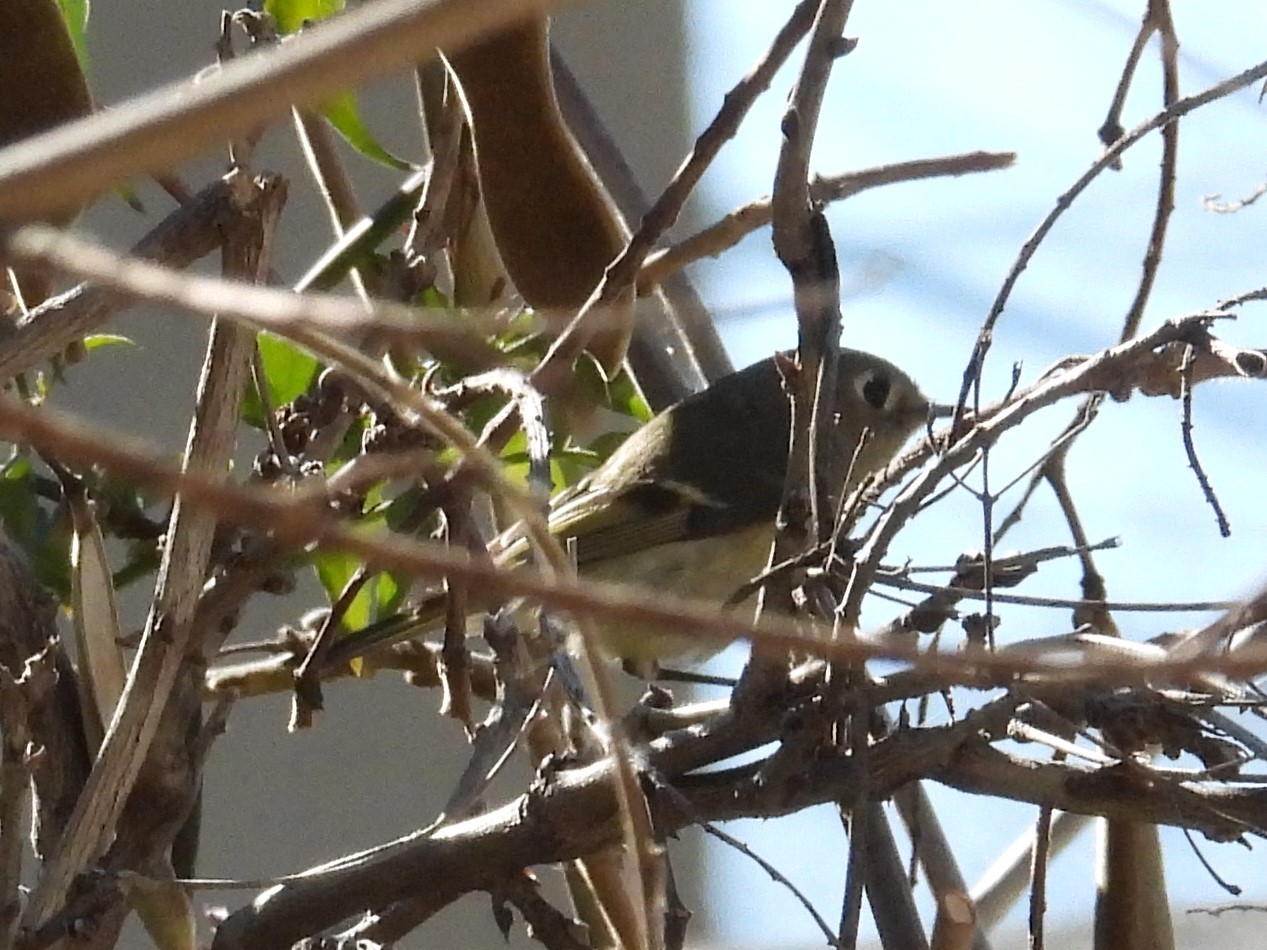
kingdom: Animalia
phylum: Chordata
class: Aves
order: Passeriformes
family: Regulidae
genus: Regulus
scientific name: Regulus calendula
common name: Ruby-crowned kinglet
